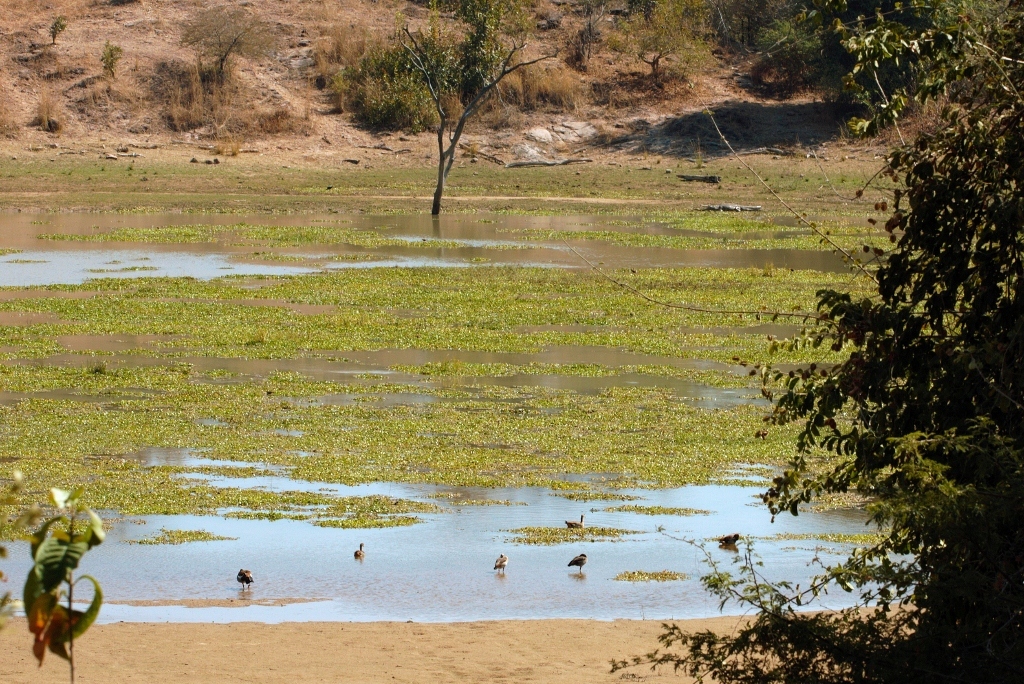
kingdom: Animalia
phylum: Chordata
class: Aves
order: Anseriformes
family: Anatidae
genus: Alopochen
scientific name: Alopochen aegyptiaca
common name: Egyptian goose
